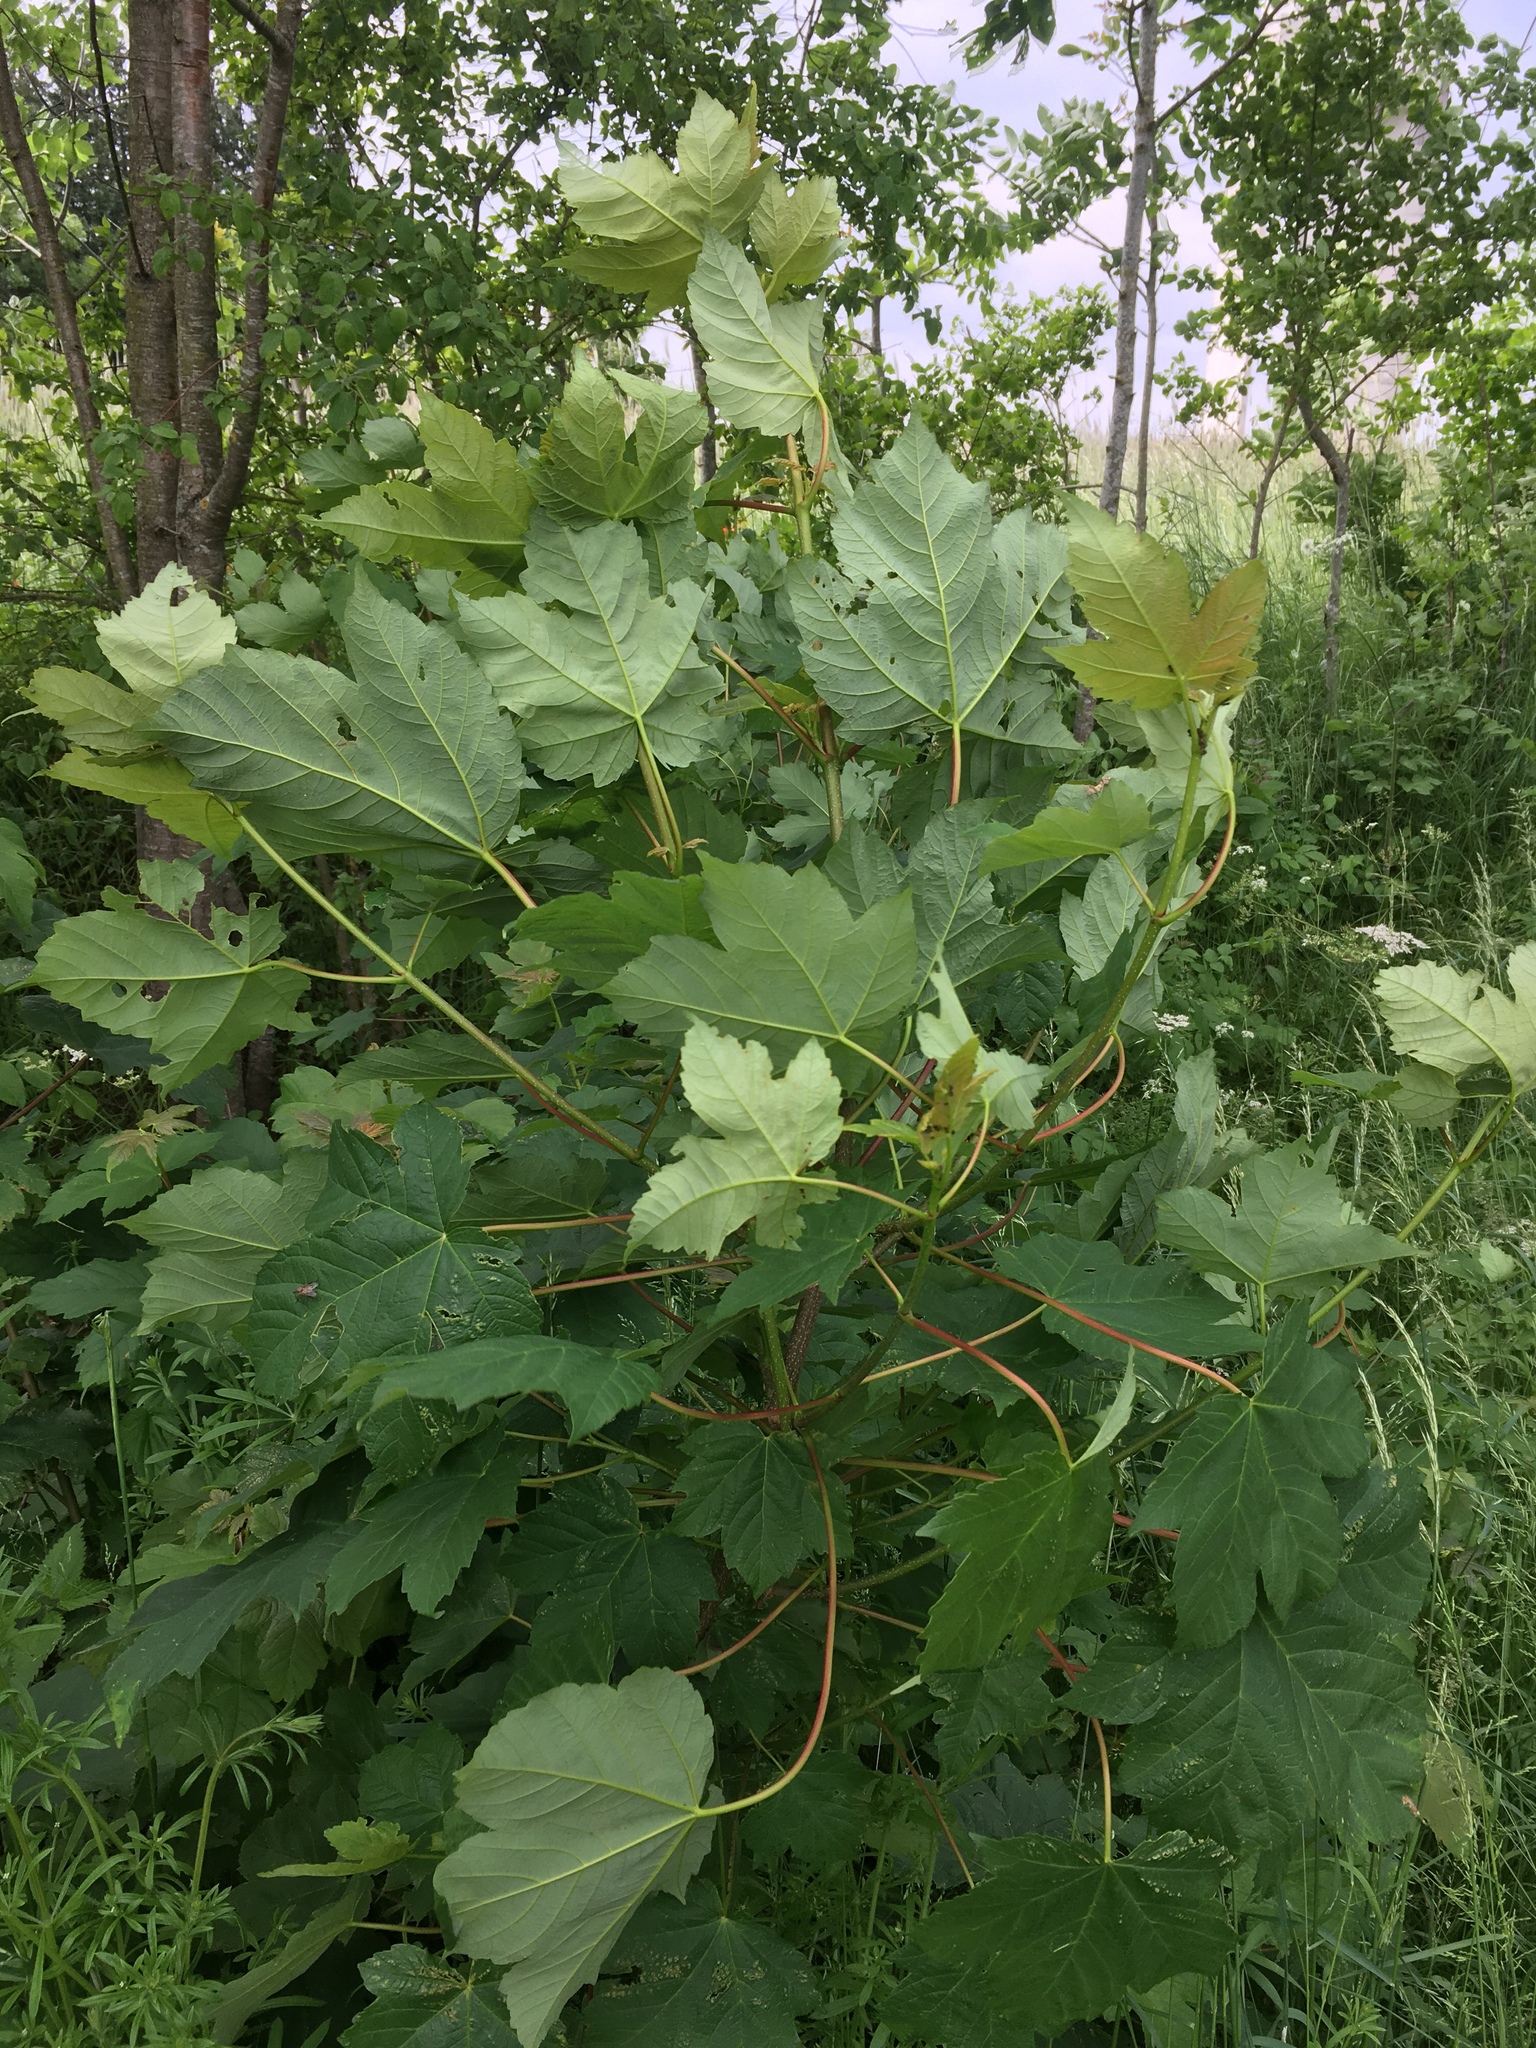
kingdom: Plantae
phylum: Tracheophyta
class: Magnoliopsida
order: Sapindales
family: Sapindaceae
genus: Acer
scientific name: Acer pseudoplatanus
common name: Sycamore
